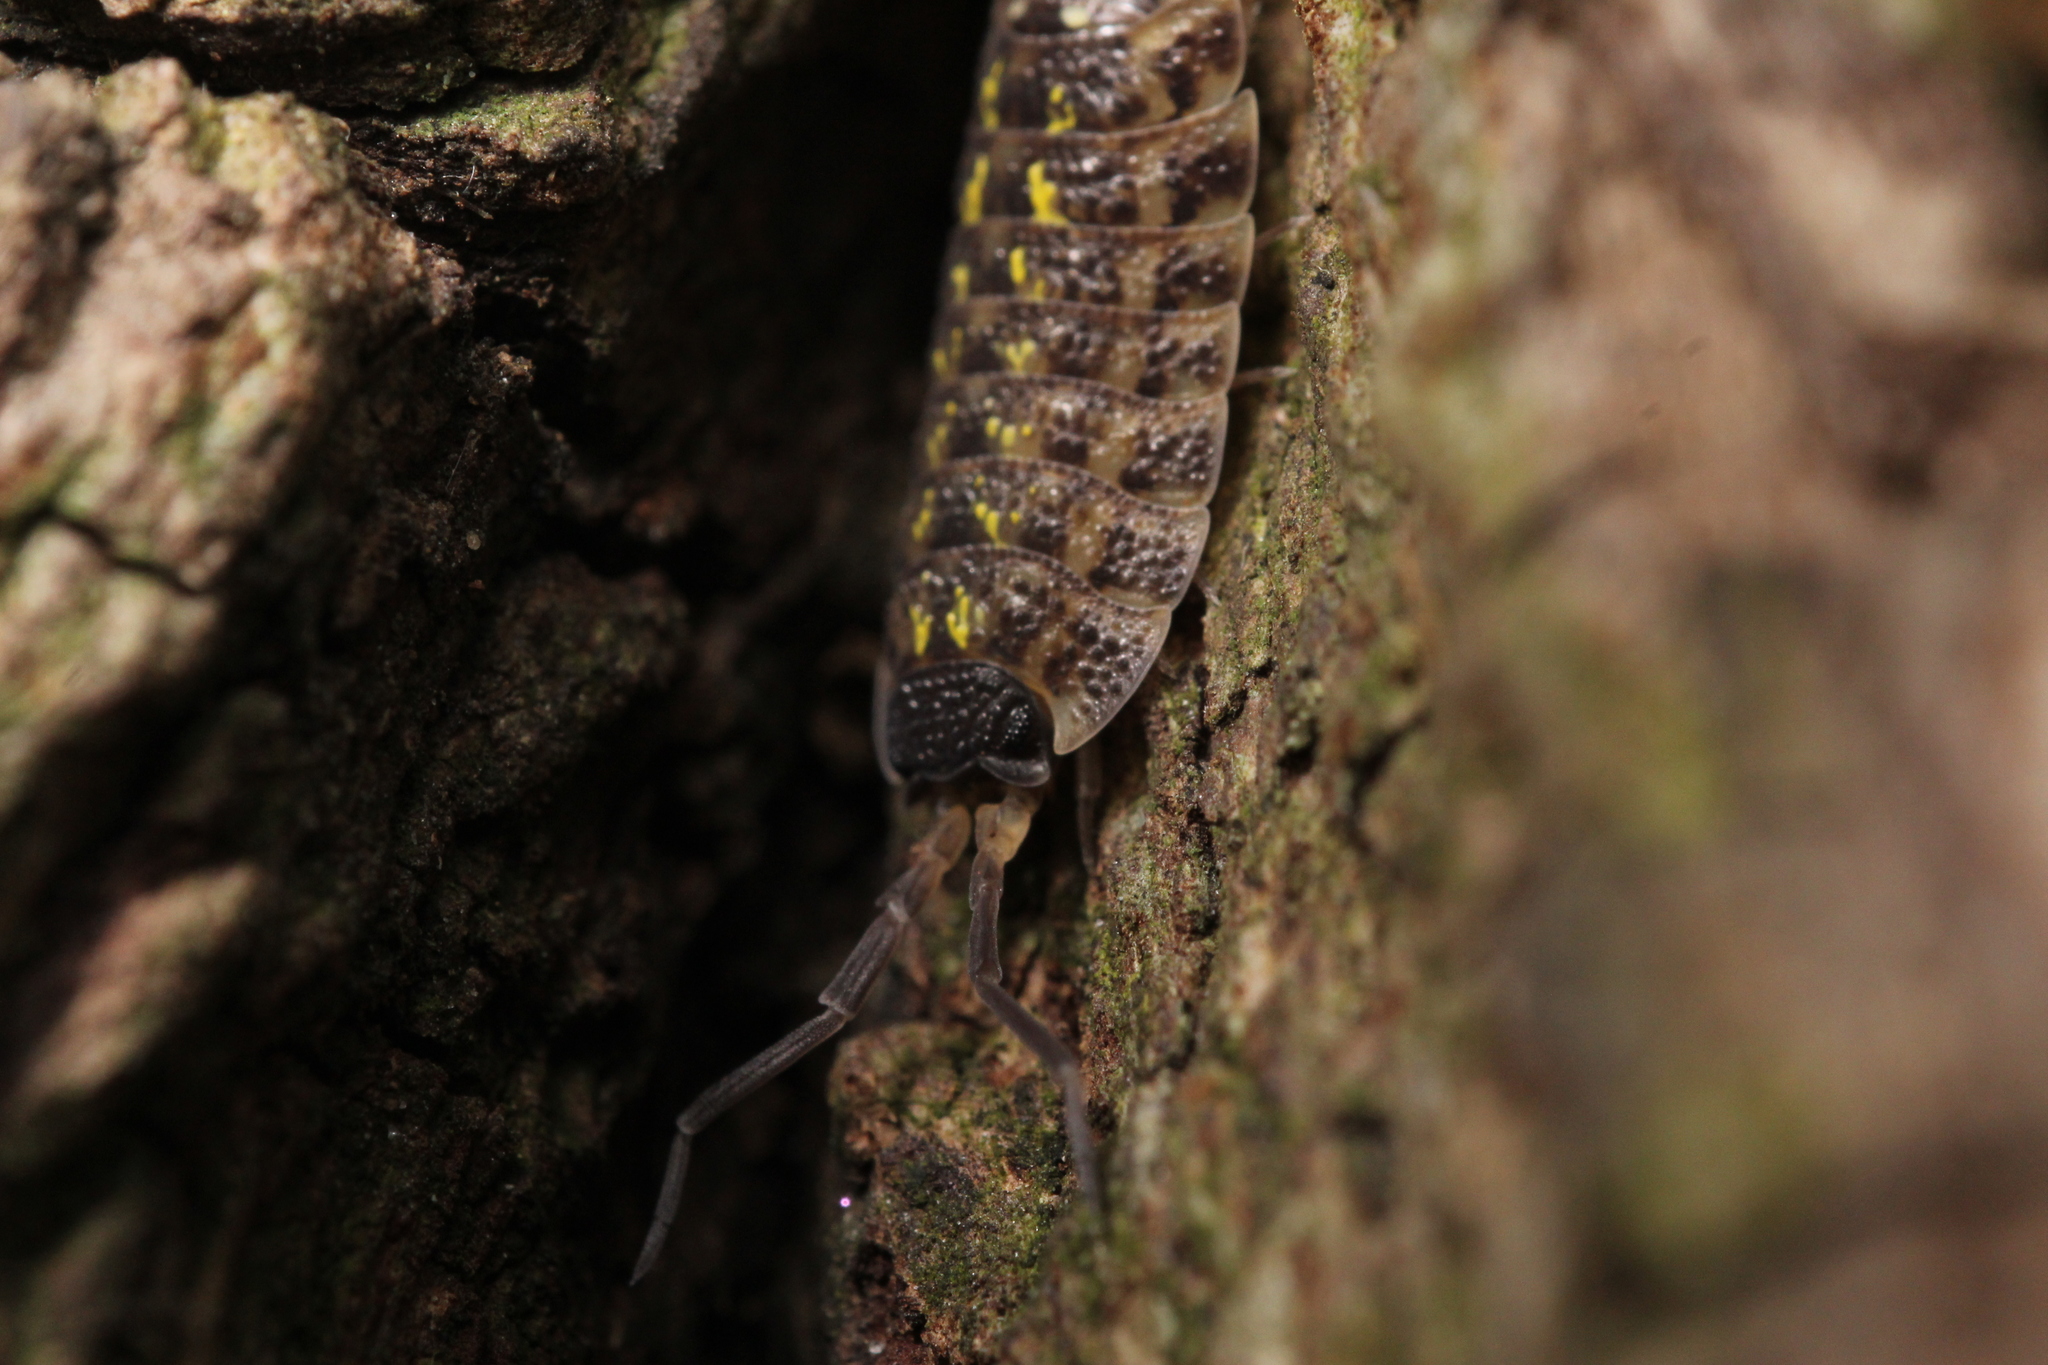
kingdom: Animalia
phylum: Arthropoda
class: Malacostraca
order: Isopoda
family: Porcellionidae
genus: Porcellio
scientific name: Porcellio spinicornis
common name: Painted woodlouse
